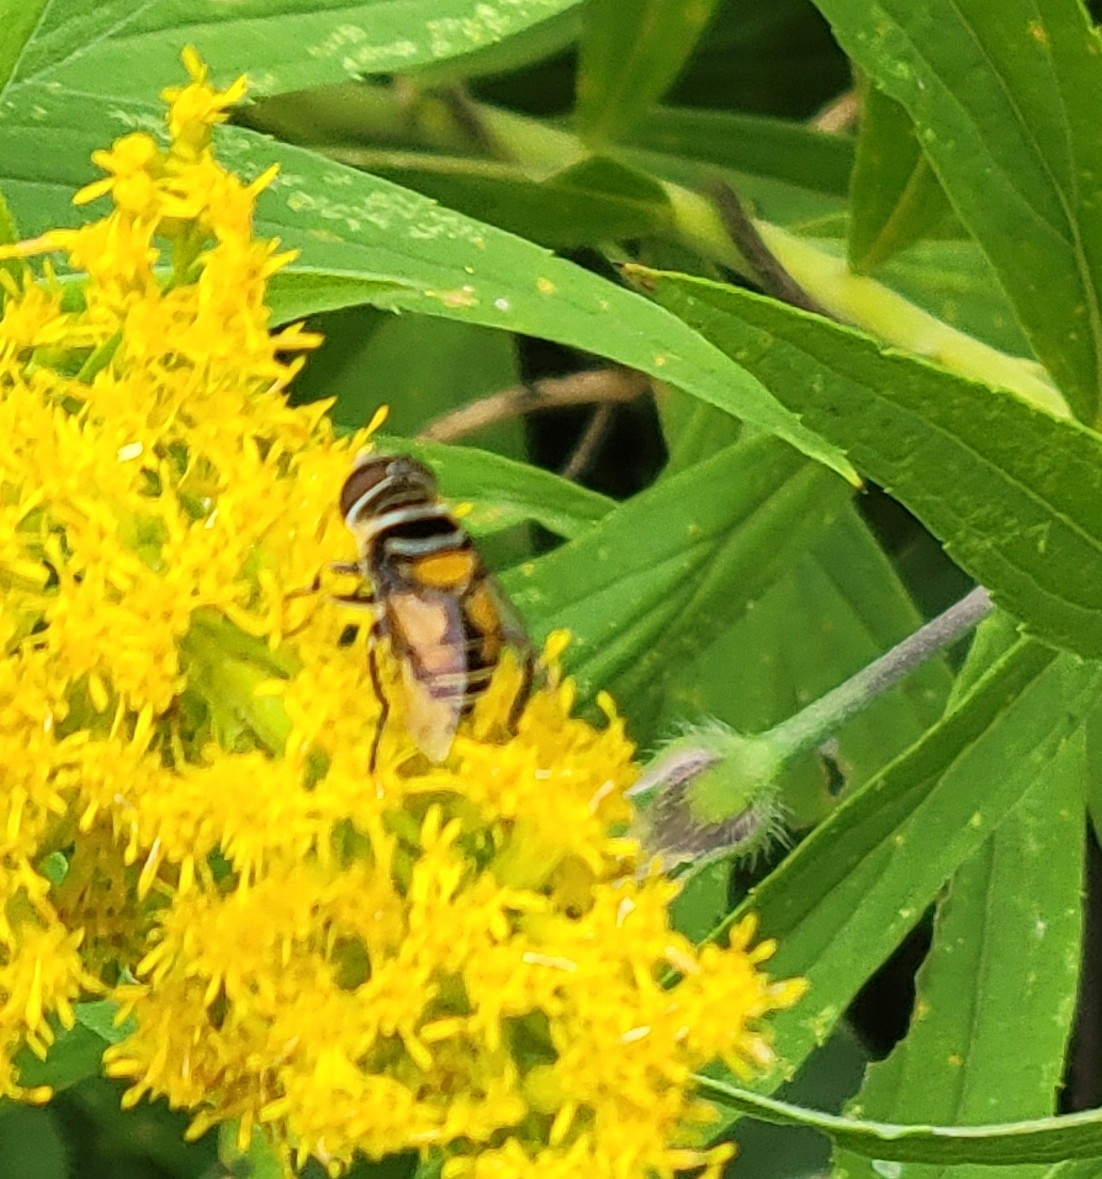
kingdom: Animalia
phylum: Arthropoda
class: Insecta
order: Diptera
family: Syrphidae
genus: Palpada
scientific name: Palpada agrorum
